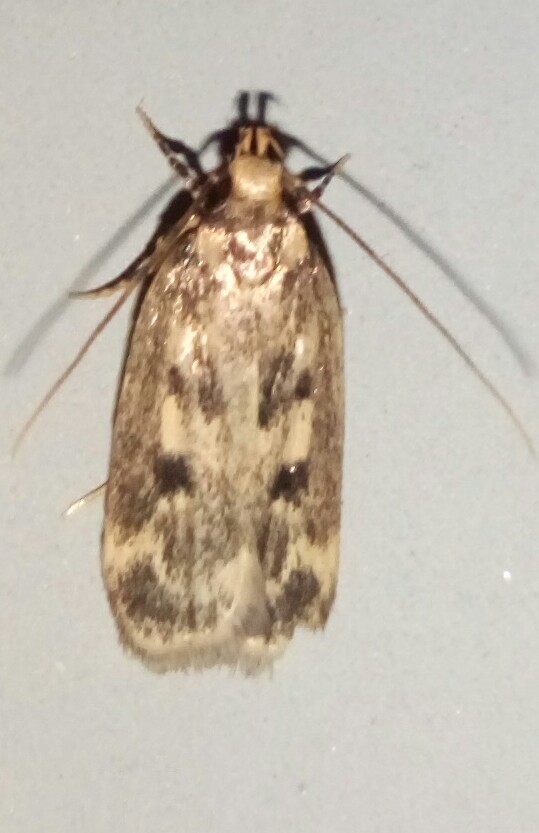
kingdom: Animalia
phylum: Arthropoda
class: Insecta
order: Lepidoptera
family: Lecithoceridae
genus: Martyringa
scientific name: Martyringa latipennis
